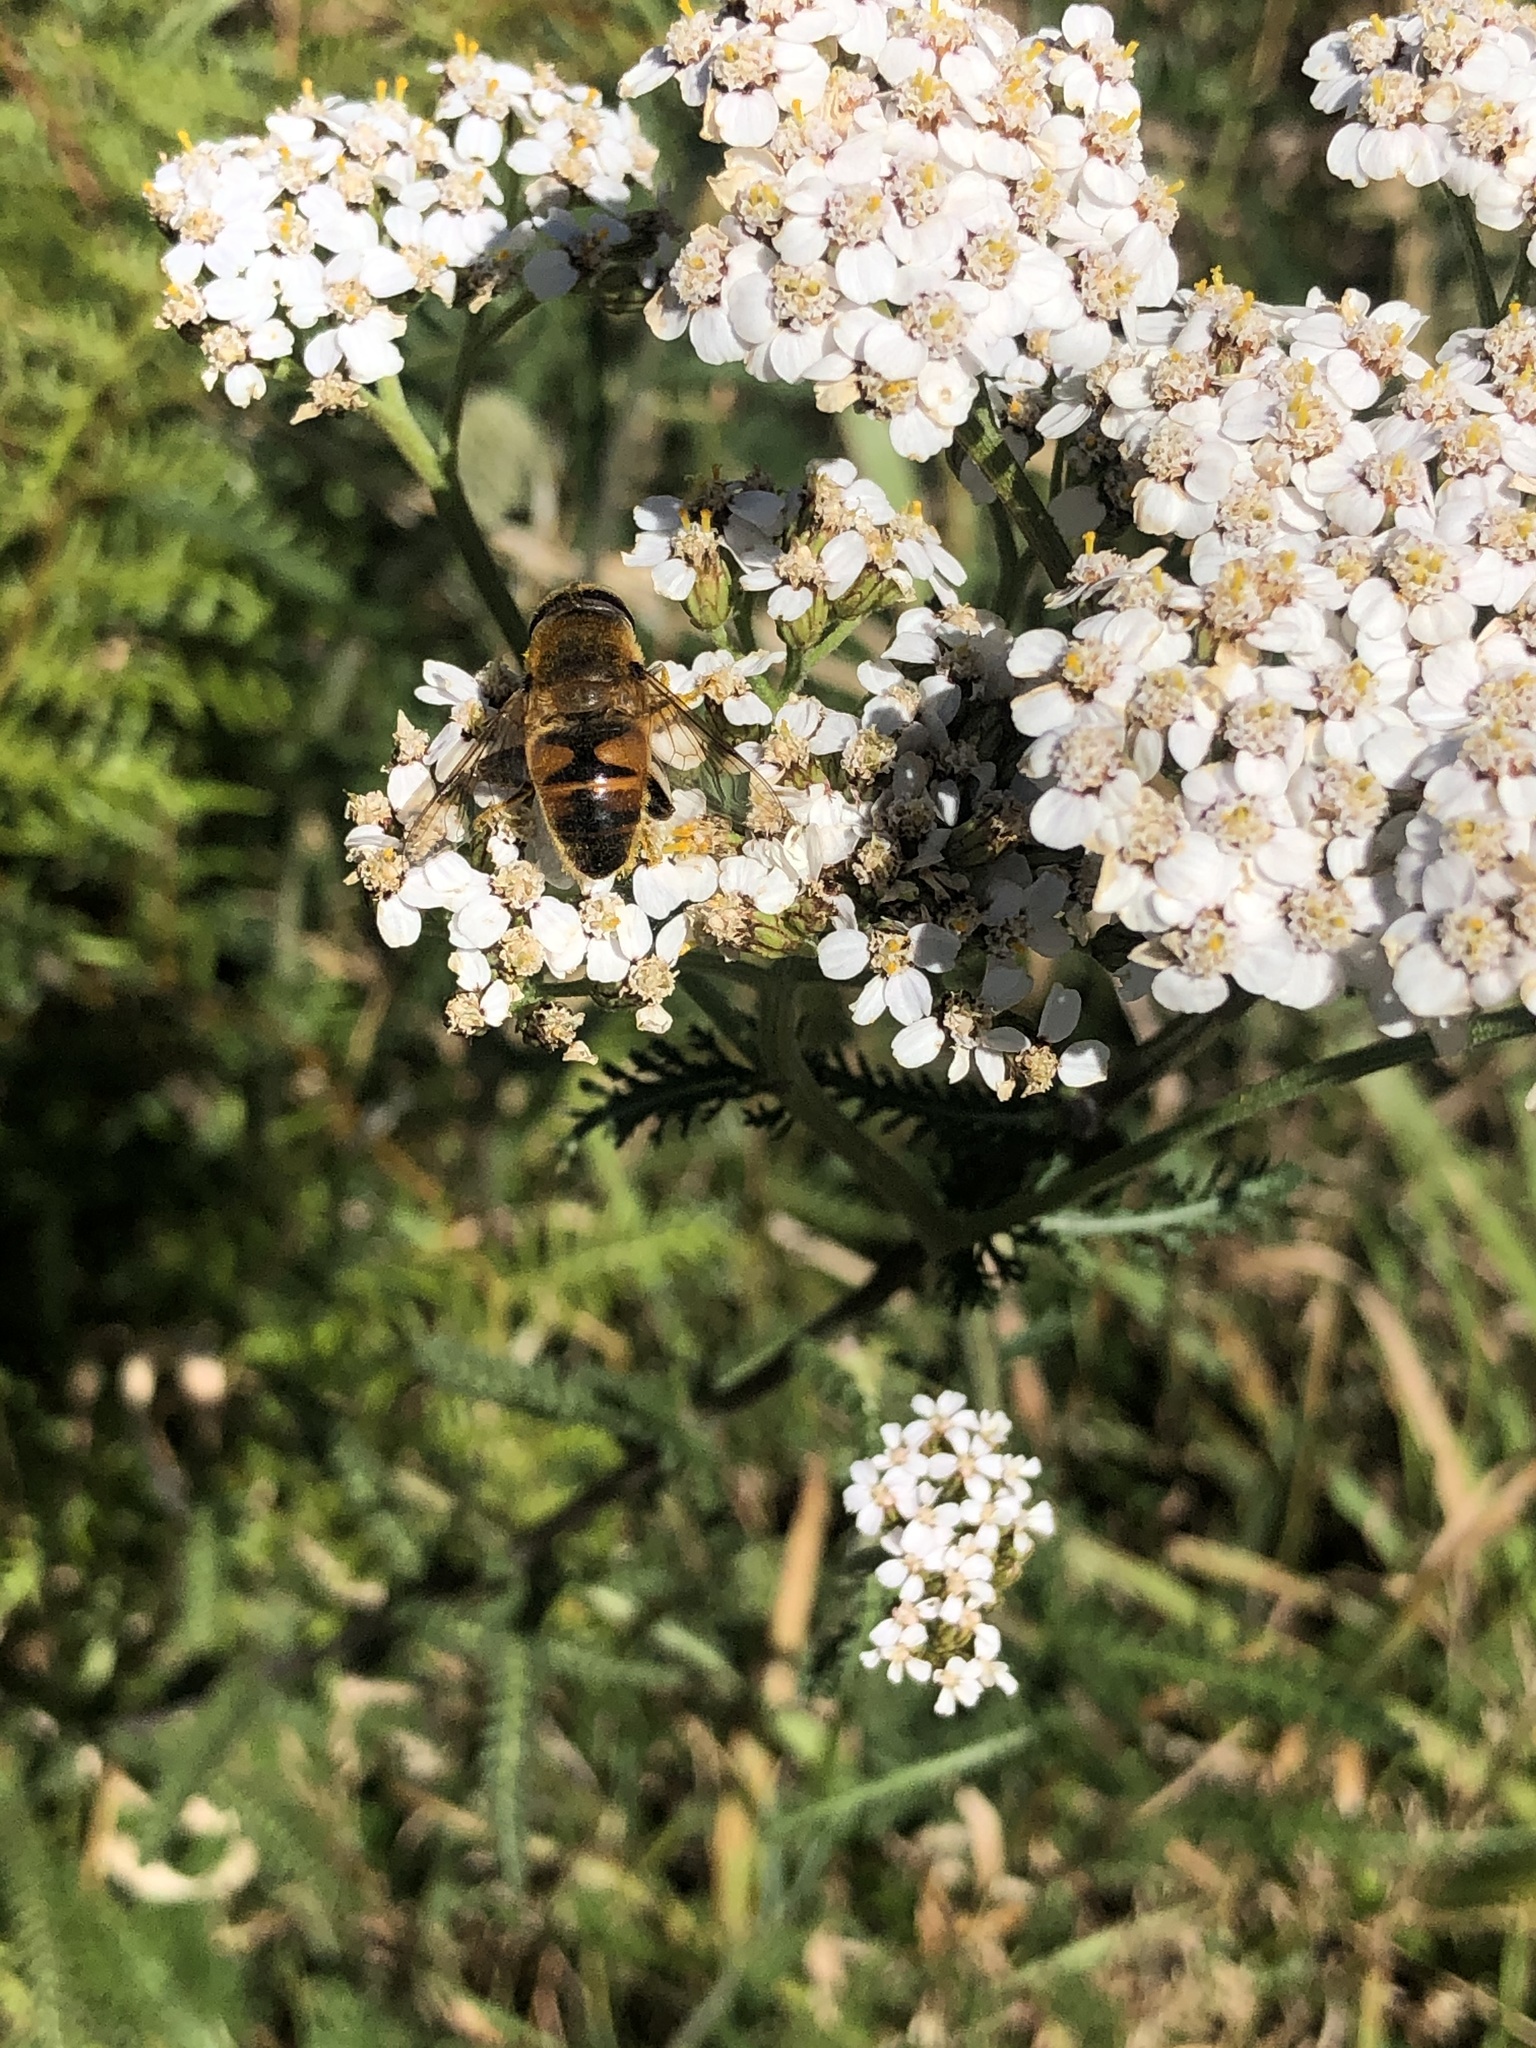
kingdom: Animalia
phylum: Arthropoda
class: Insecta
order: Diptera
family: Syrphidae
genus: Eristalis
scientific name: Eristalis tenax
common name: Drone fly
